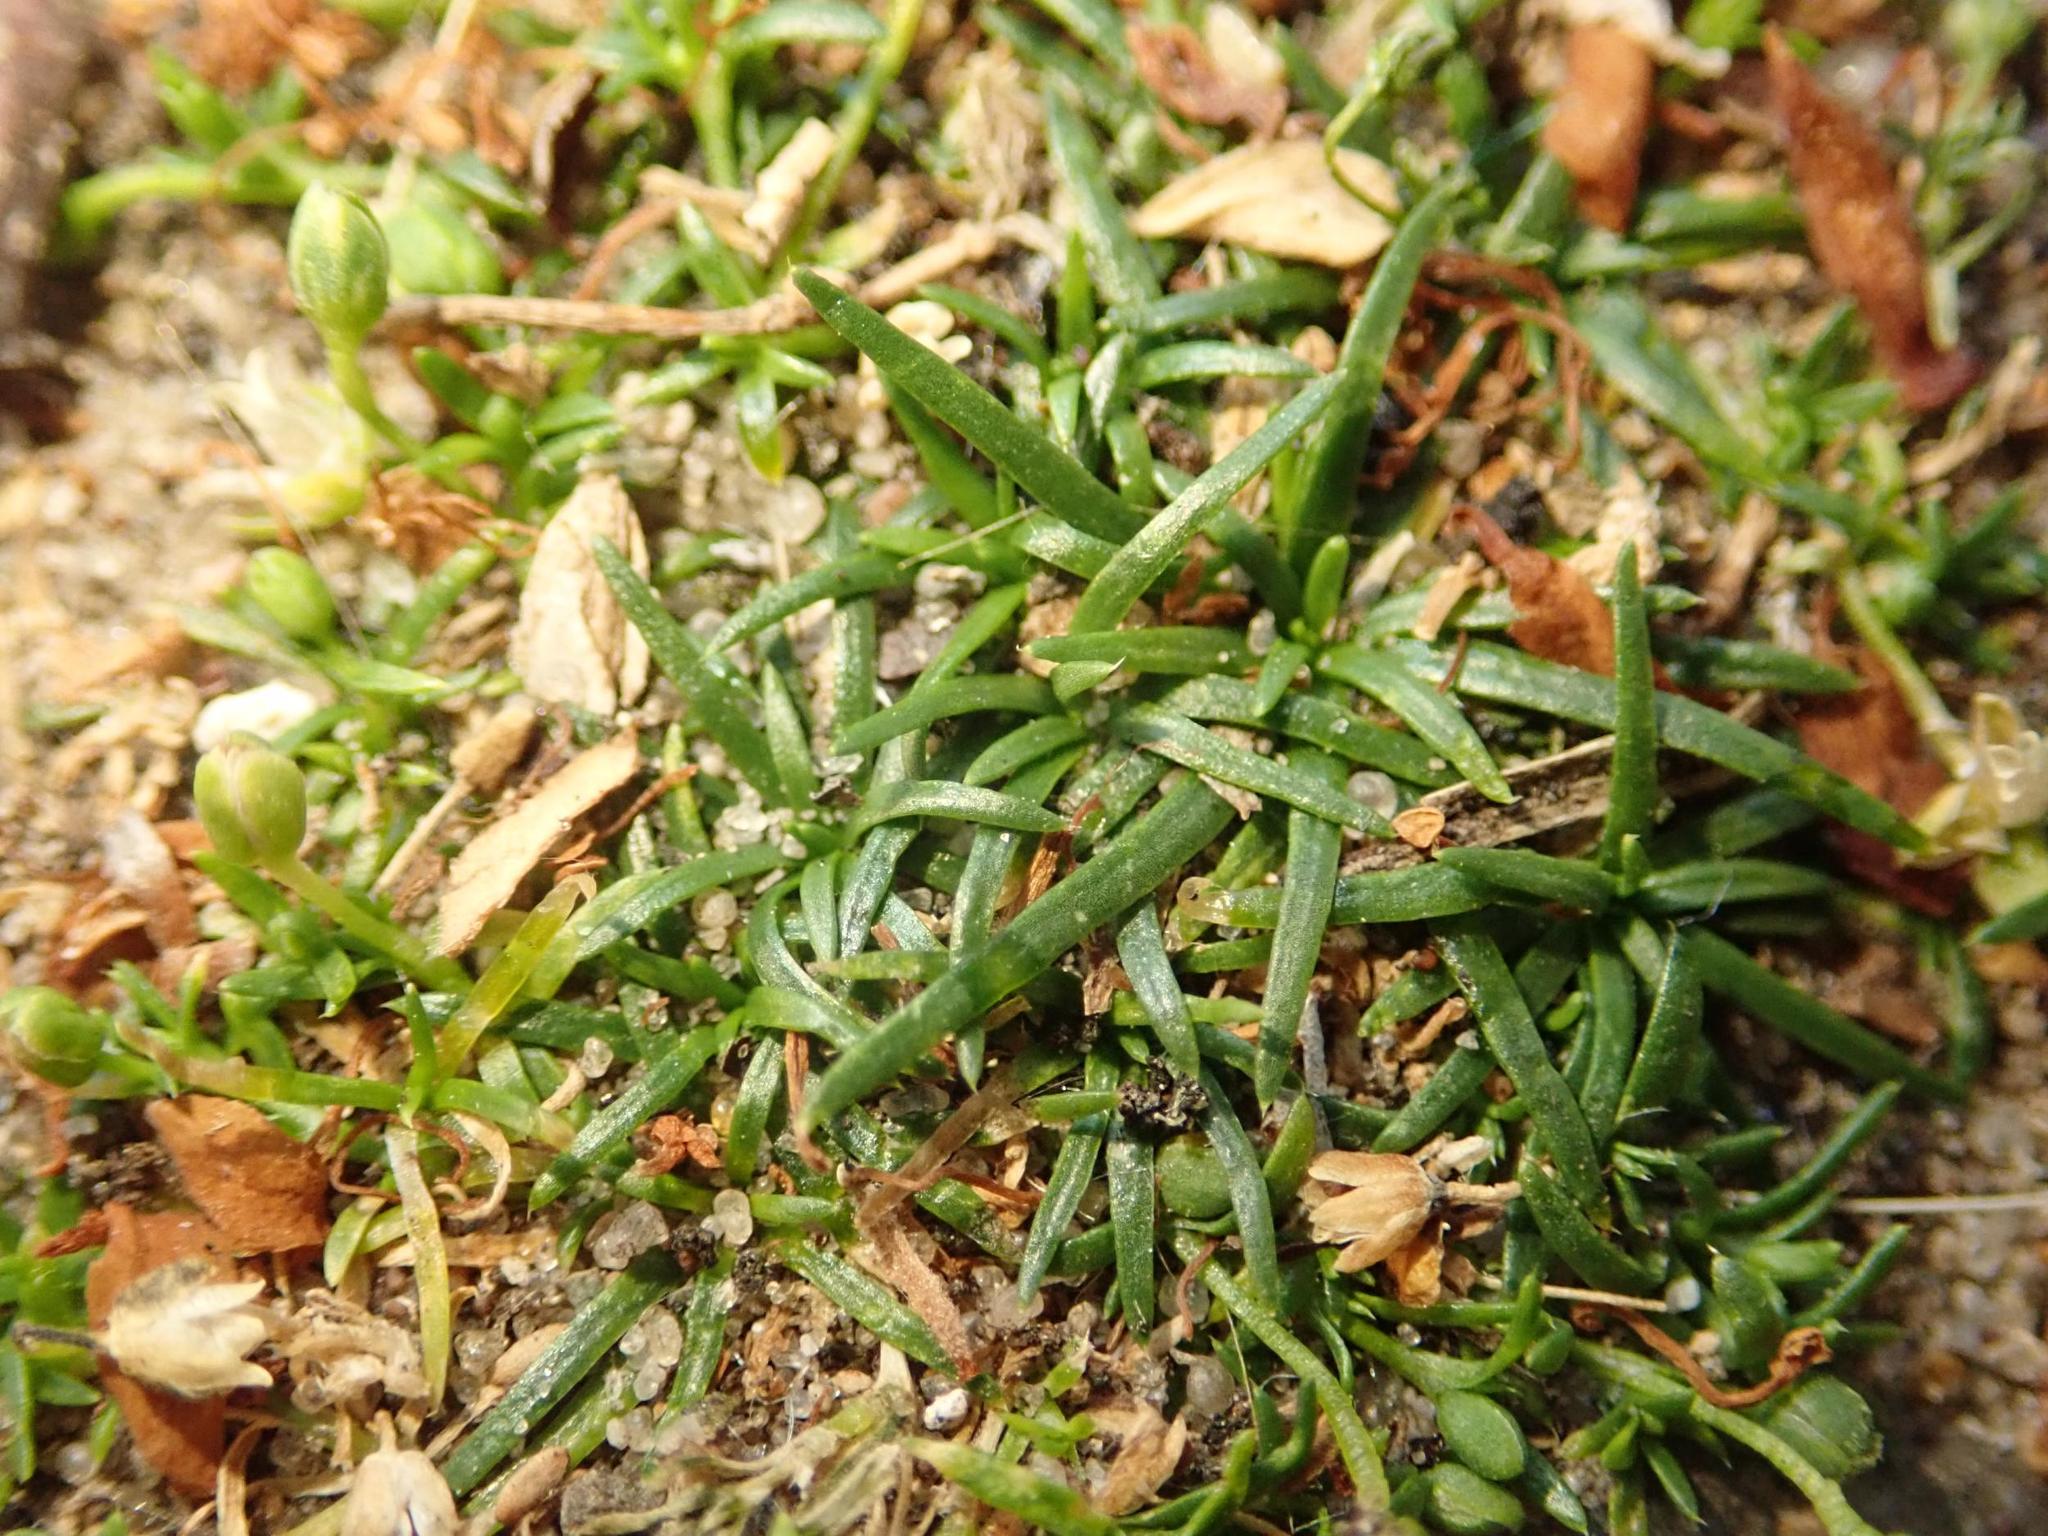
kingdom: Plantae
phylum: Tracheophyta
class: Magnoliopsida
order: Caryophyllales
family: Caryophyllaceae
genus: Sagina
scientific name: Sagina procumbens
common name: Procumbent pearlwort
